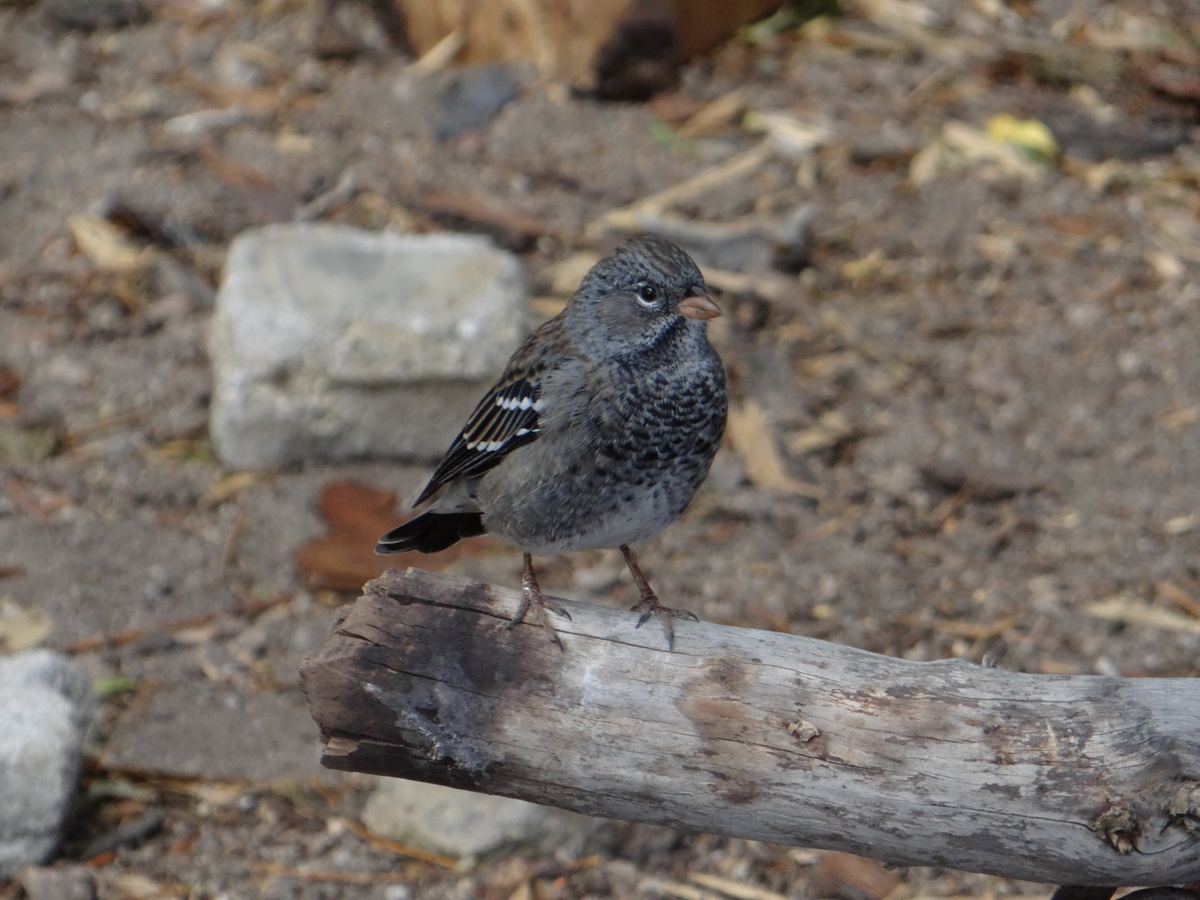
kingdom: Animalia
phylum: Chordata
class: Aves
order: Passeriformes
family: Thraupidae
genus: Rhopospina
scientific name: Rhopospina fruticeti
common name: Mourning sierra finch
